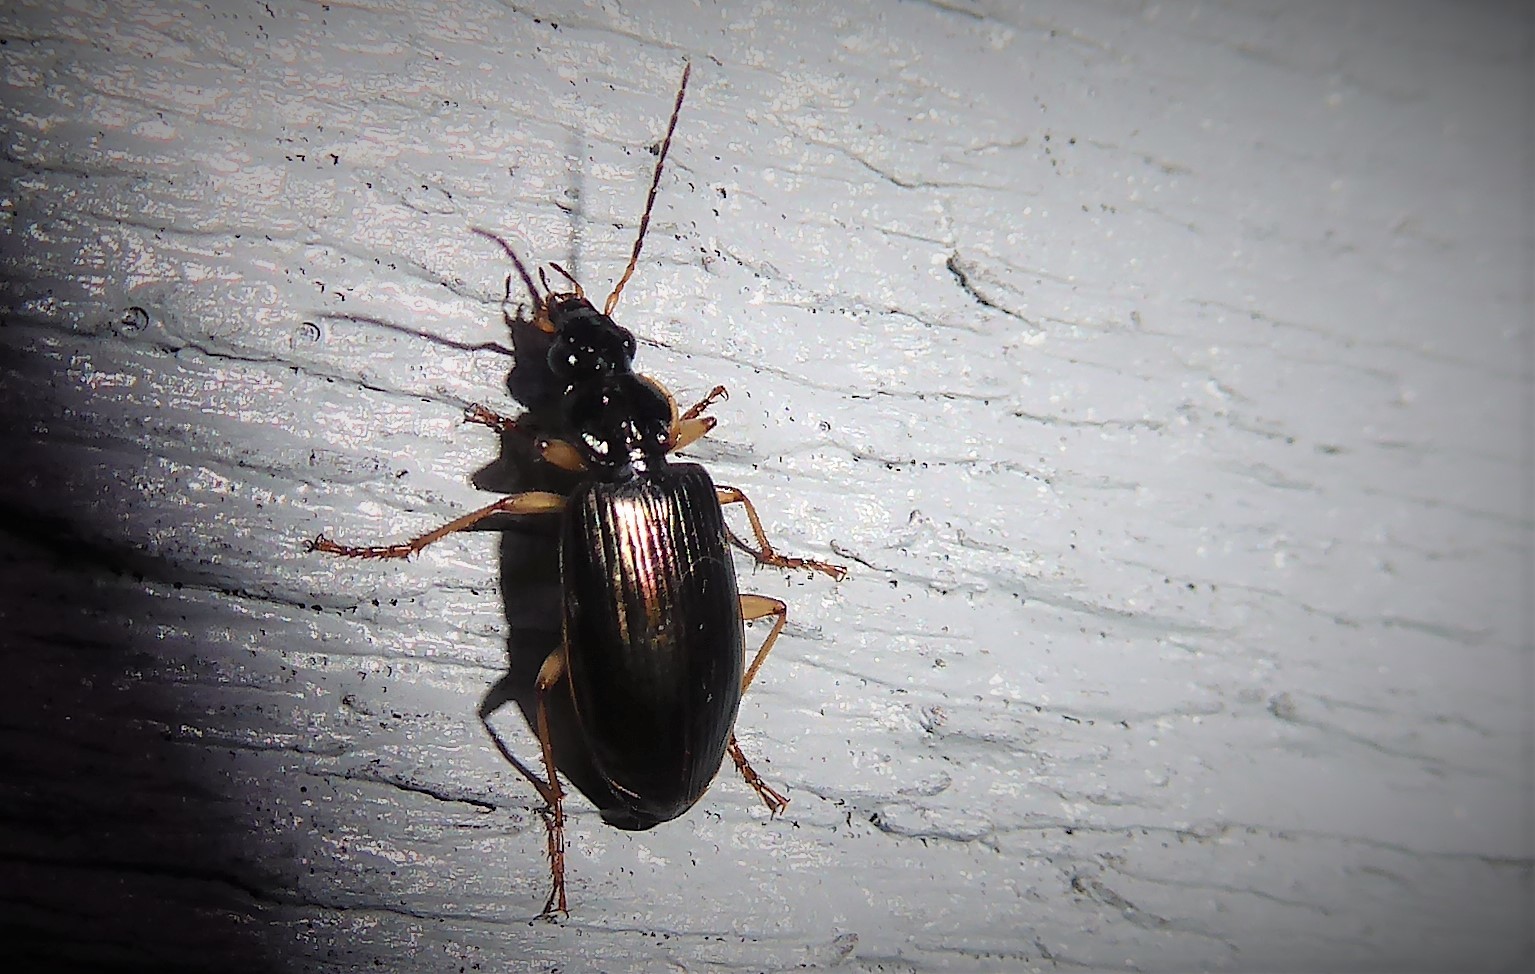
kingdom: Animalia
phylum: Arthropoda
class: Insecta
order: Coleoptera
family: Carabidae
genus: Notagonum
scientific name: Notagonum submetallicum
